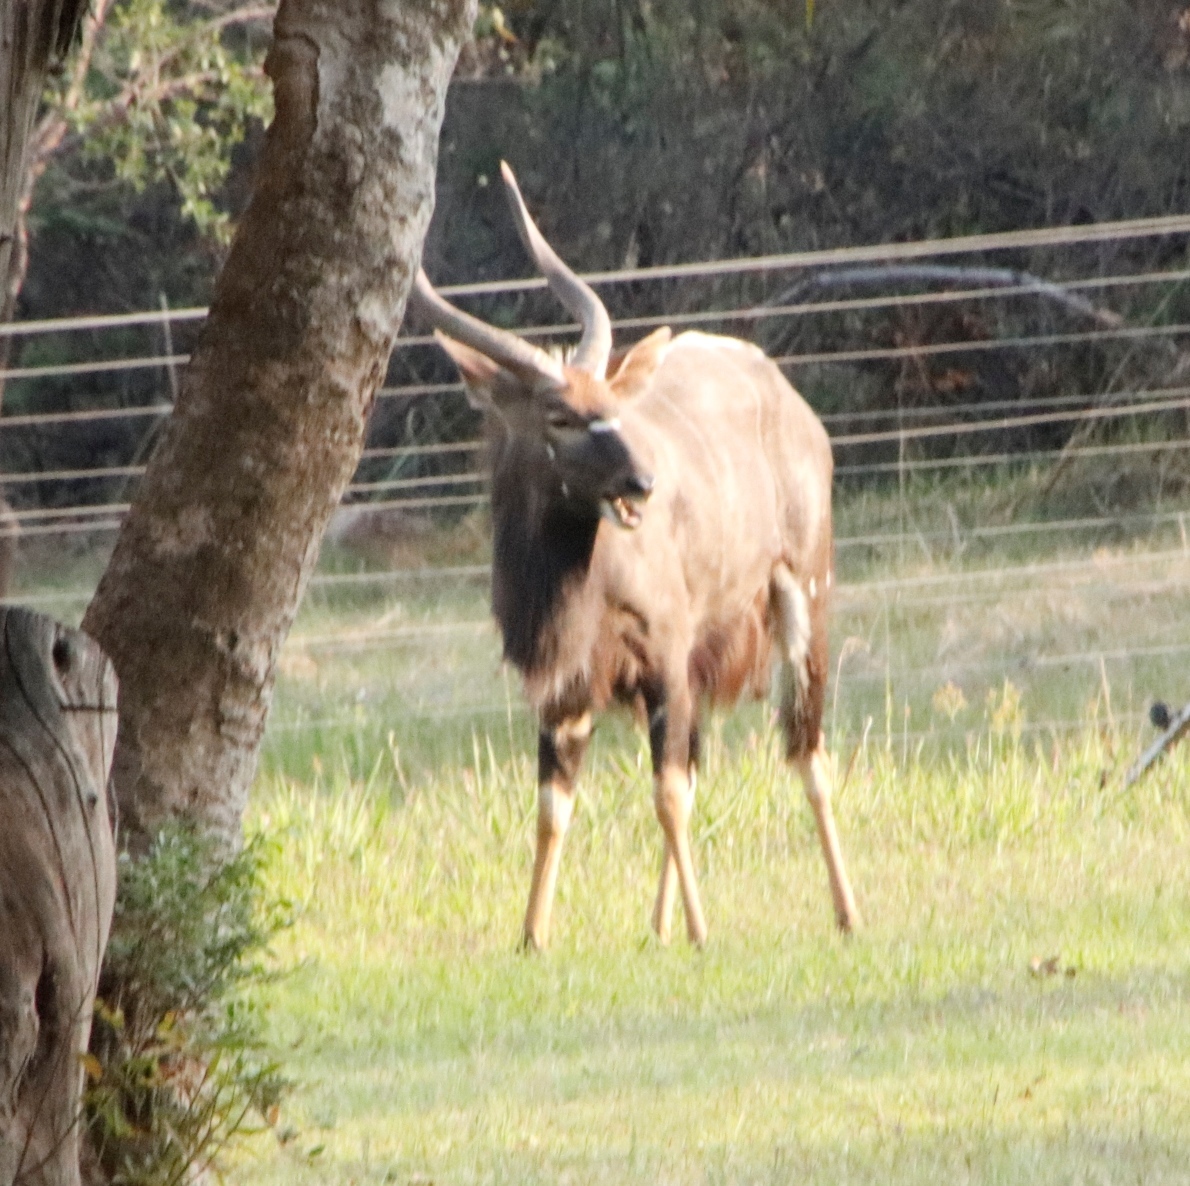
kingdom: Animalia
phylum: Chordata
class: Mammalia
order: Artiodactyla
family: Bovidae
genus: Tragelaphus
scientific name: Tragelaphus angasii
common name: Nyala
